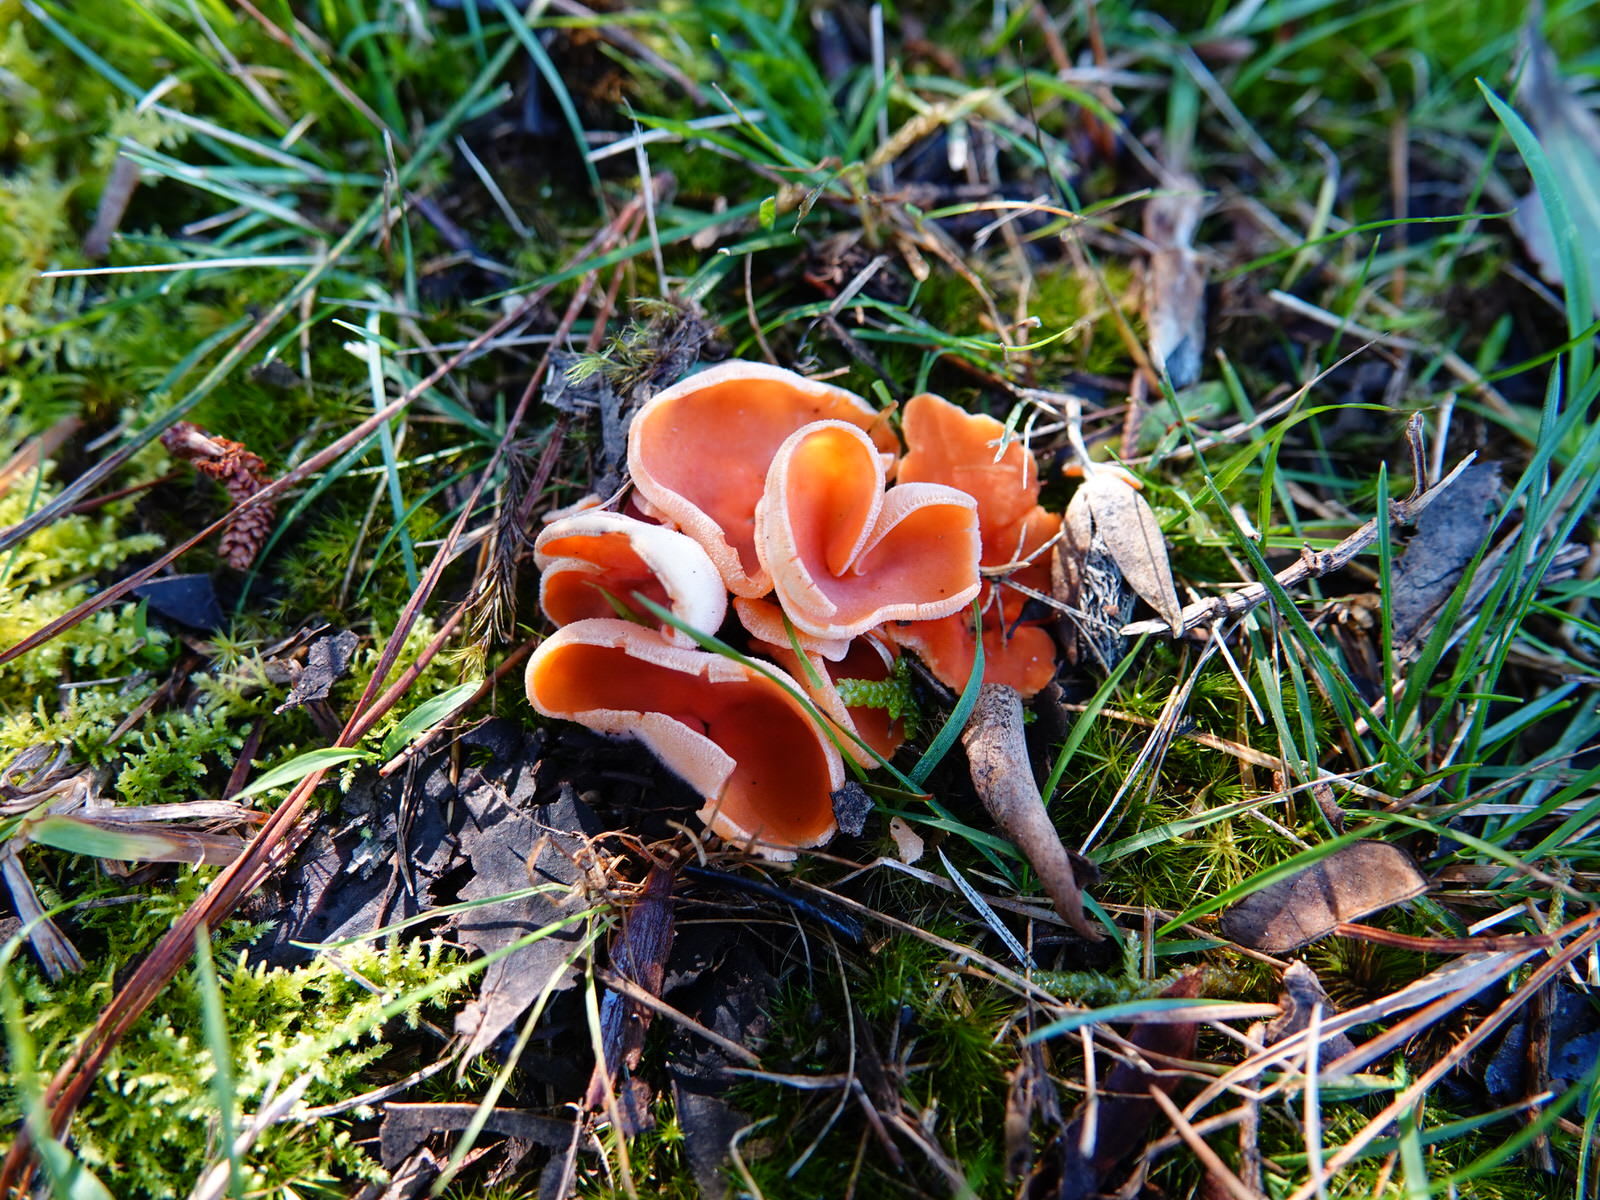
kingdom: Fungi
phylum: Ascomycota
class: Pezizomycetes
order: Pezizales
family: Pyronemataceae
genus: Aleuria
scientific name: Aleuria aurantia
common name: Orange peel fungus
